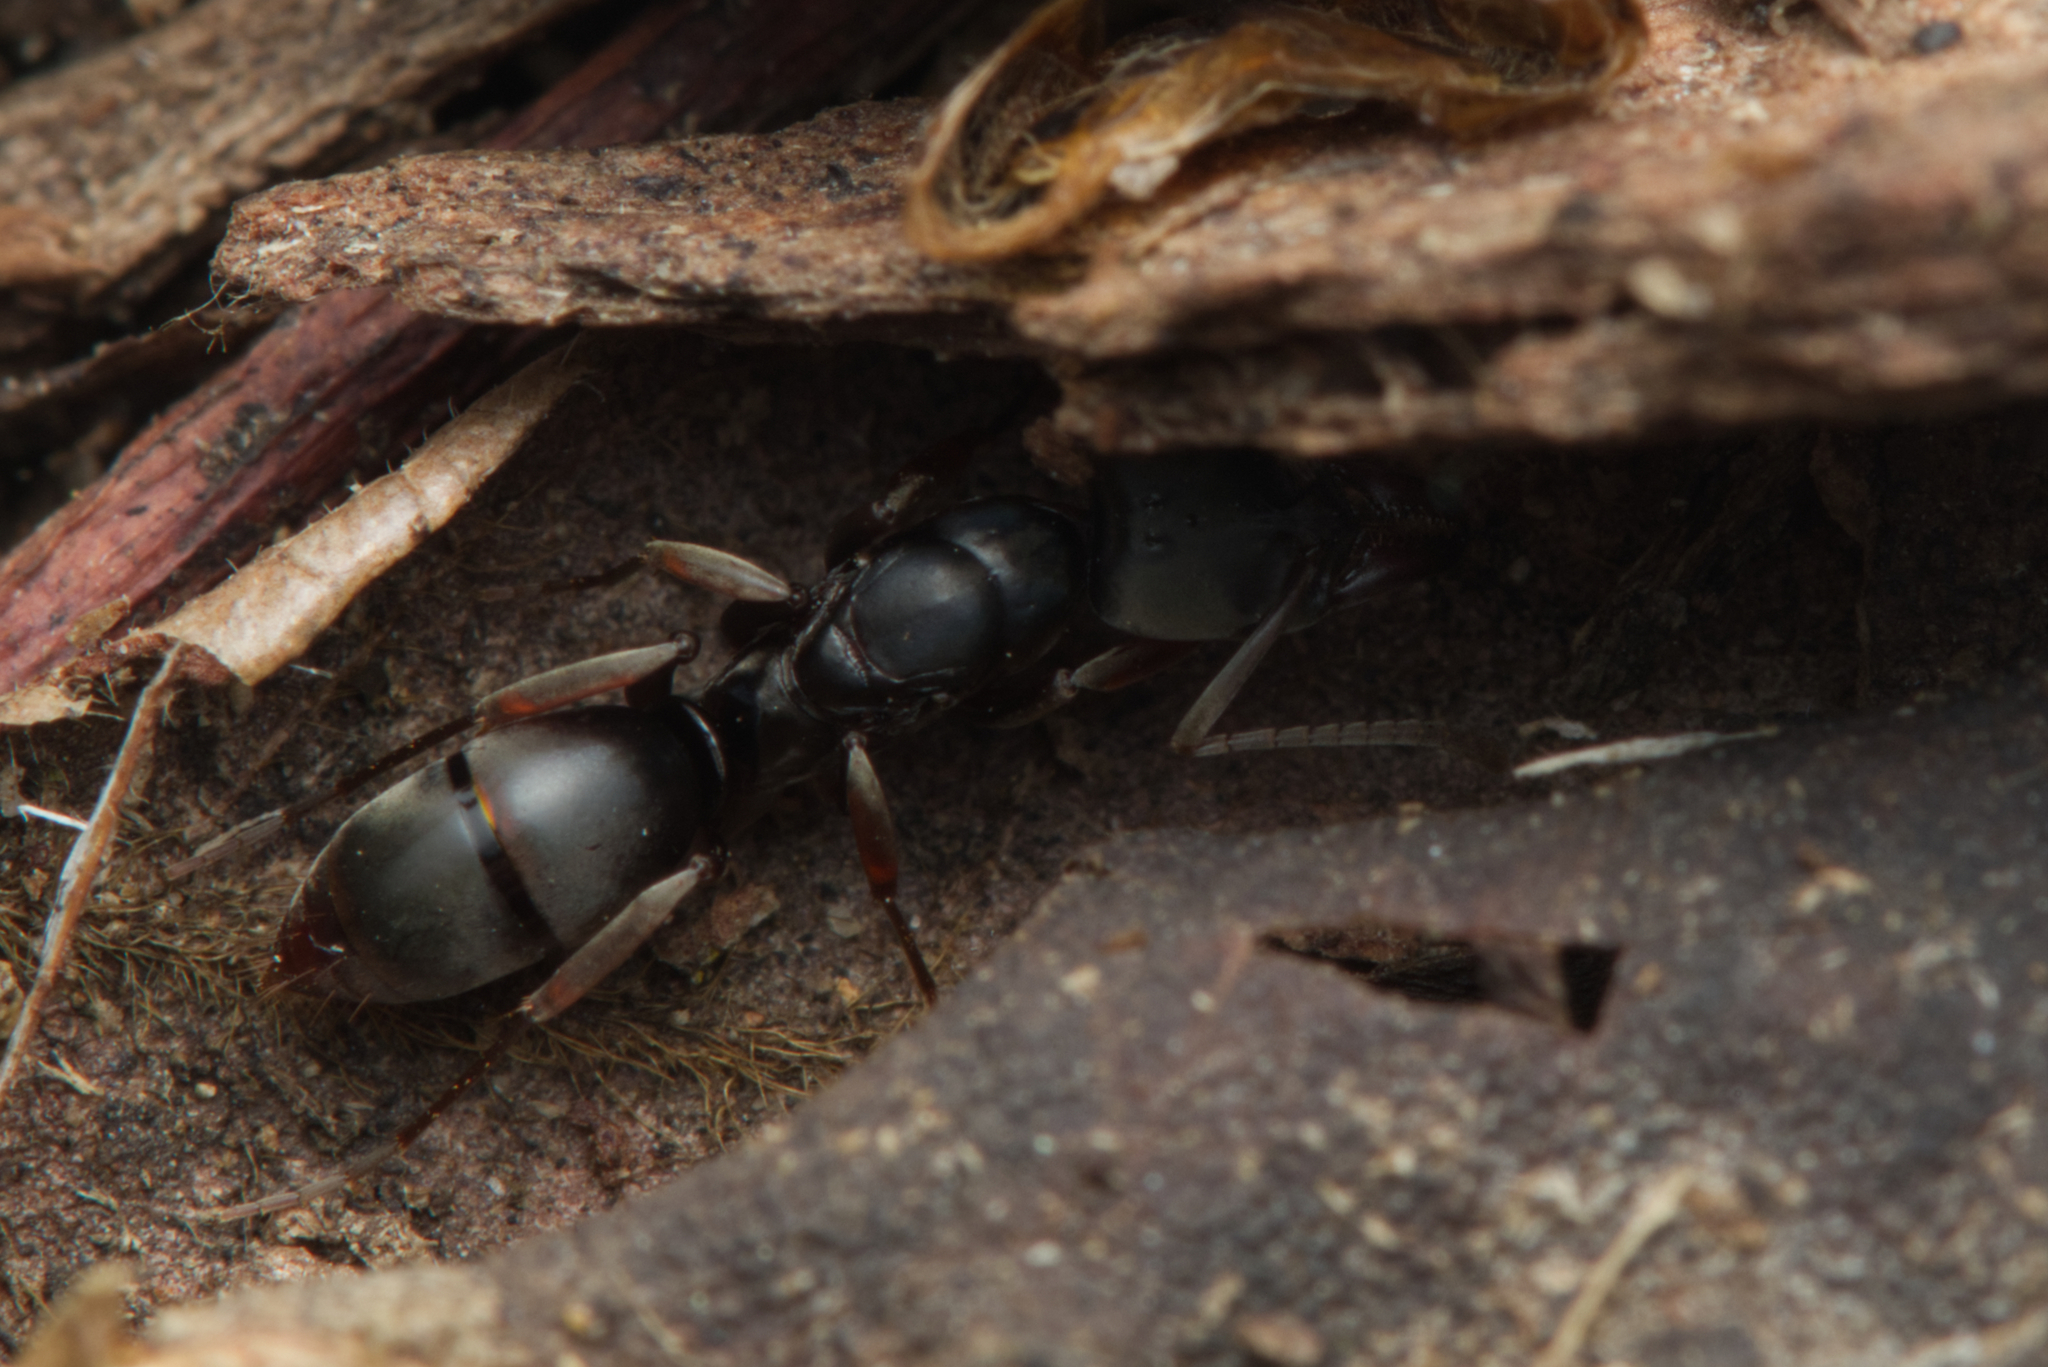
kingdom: Animalia
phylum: Arthropoda
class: Insecta
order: Hymenoptera
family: Formicidae
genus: Mesoponera
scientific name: Mesoponera
